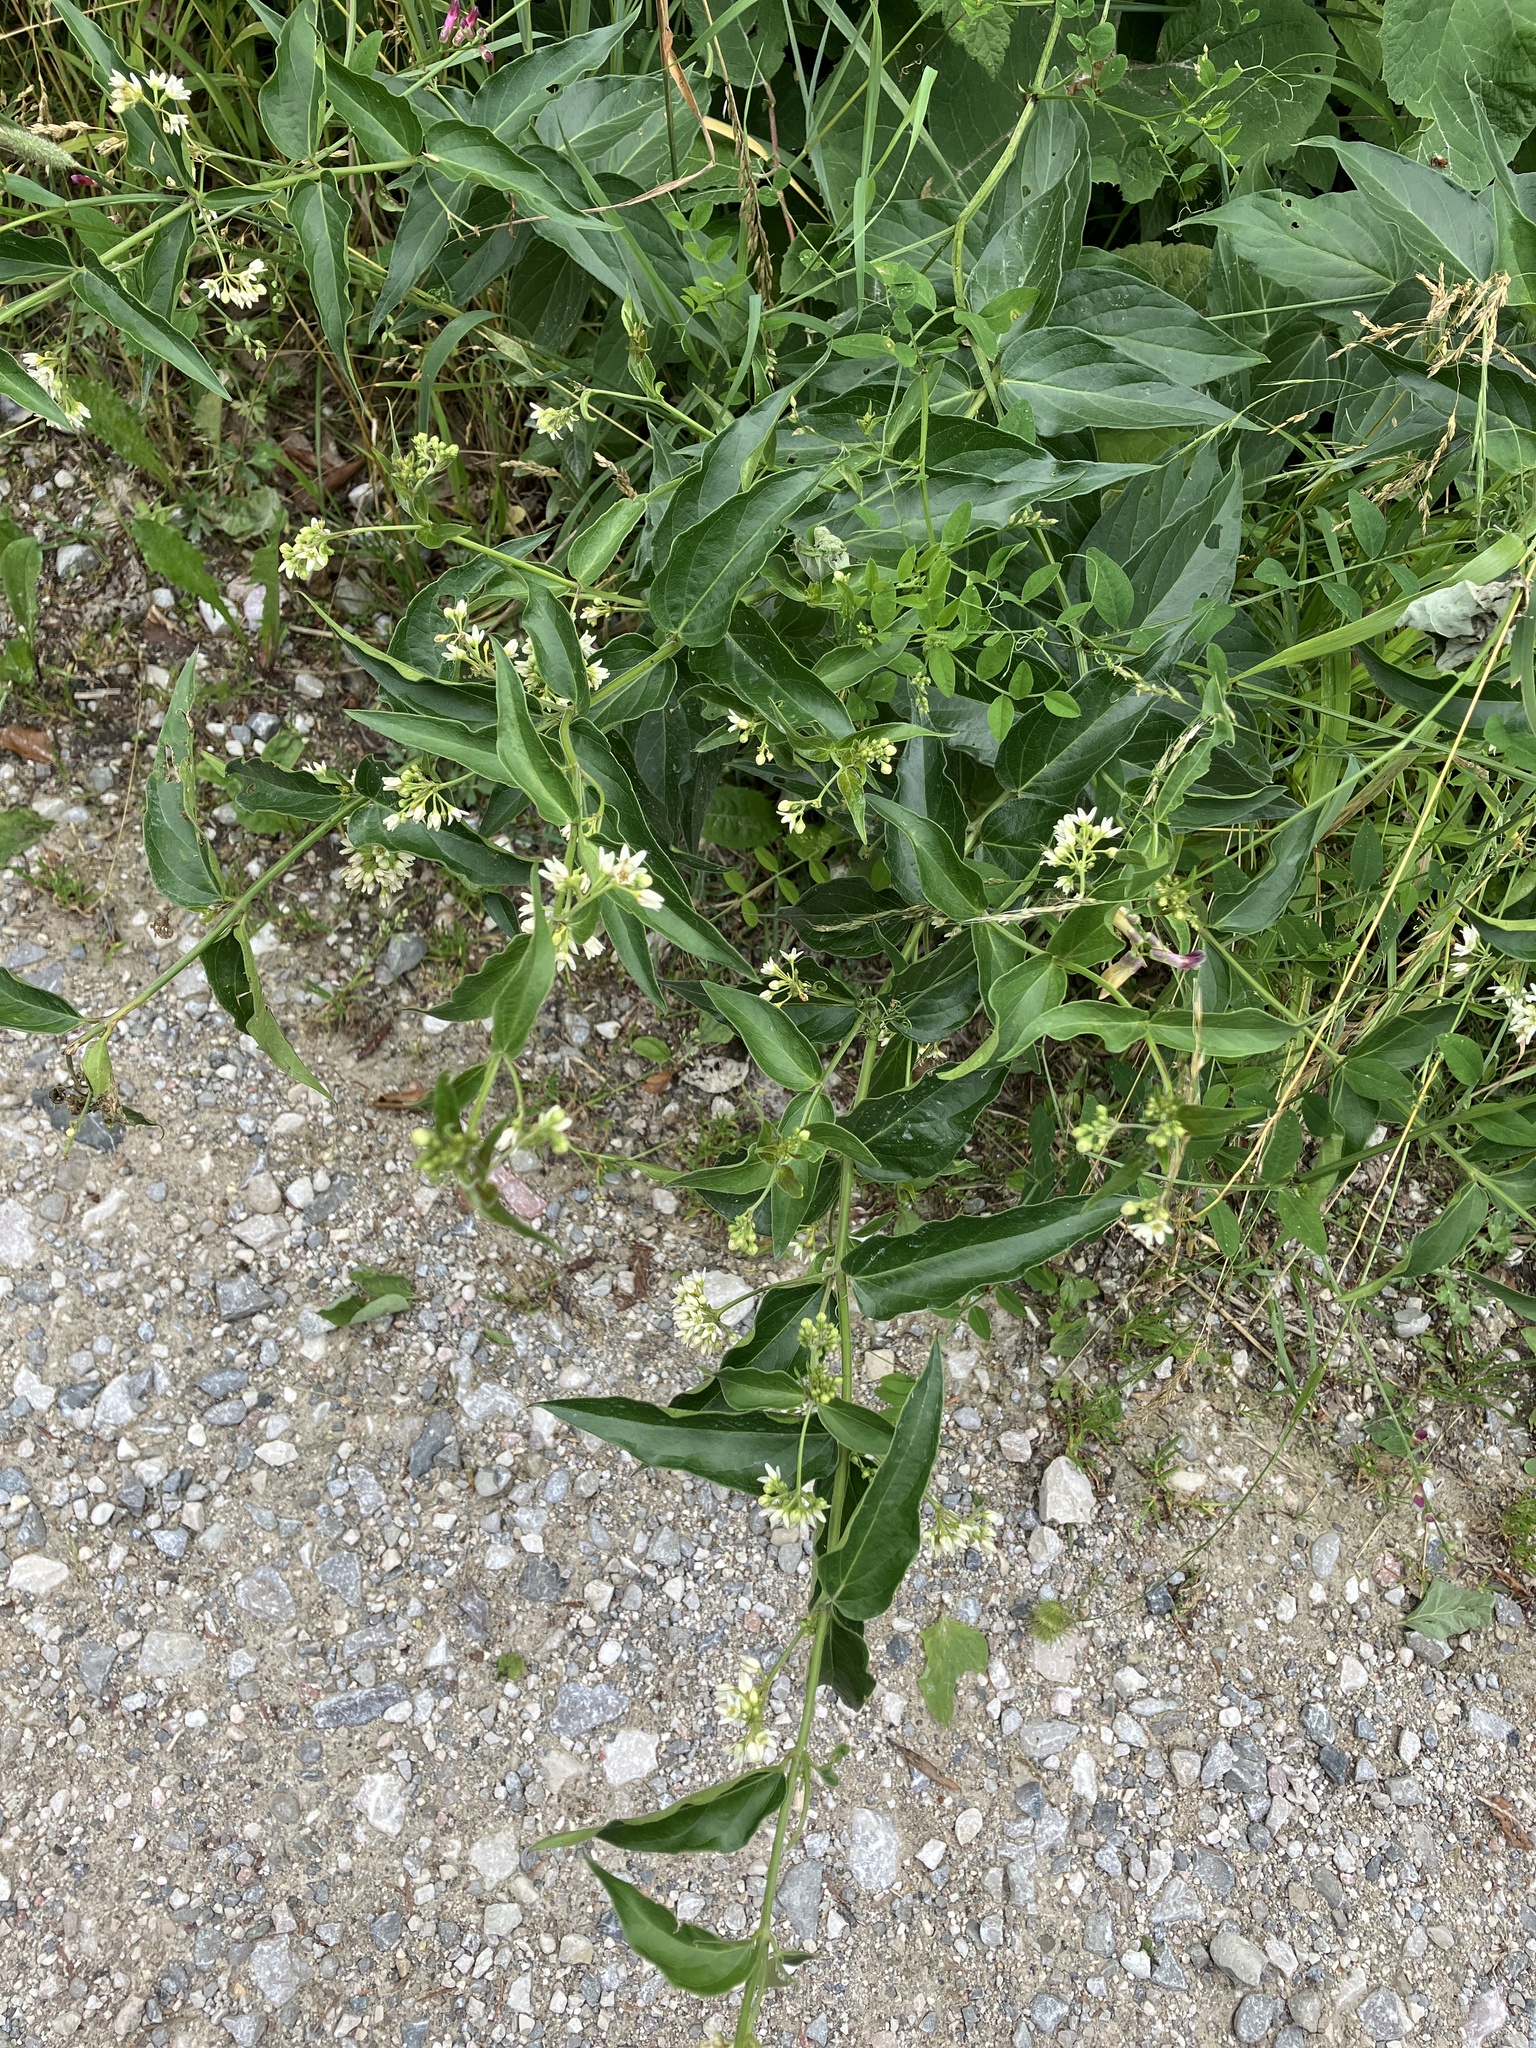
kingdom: Plantae
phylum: Tracheophyta
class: Magnoliopsida
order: Gentianales
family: Apocynaceae
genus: Vincetoxicum
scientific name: Vincetoxicum hirundinaria
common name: White swallowwort
